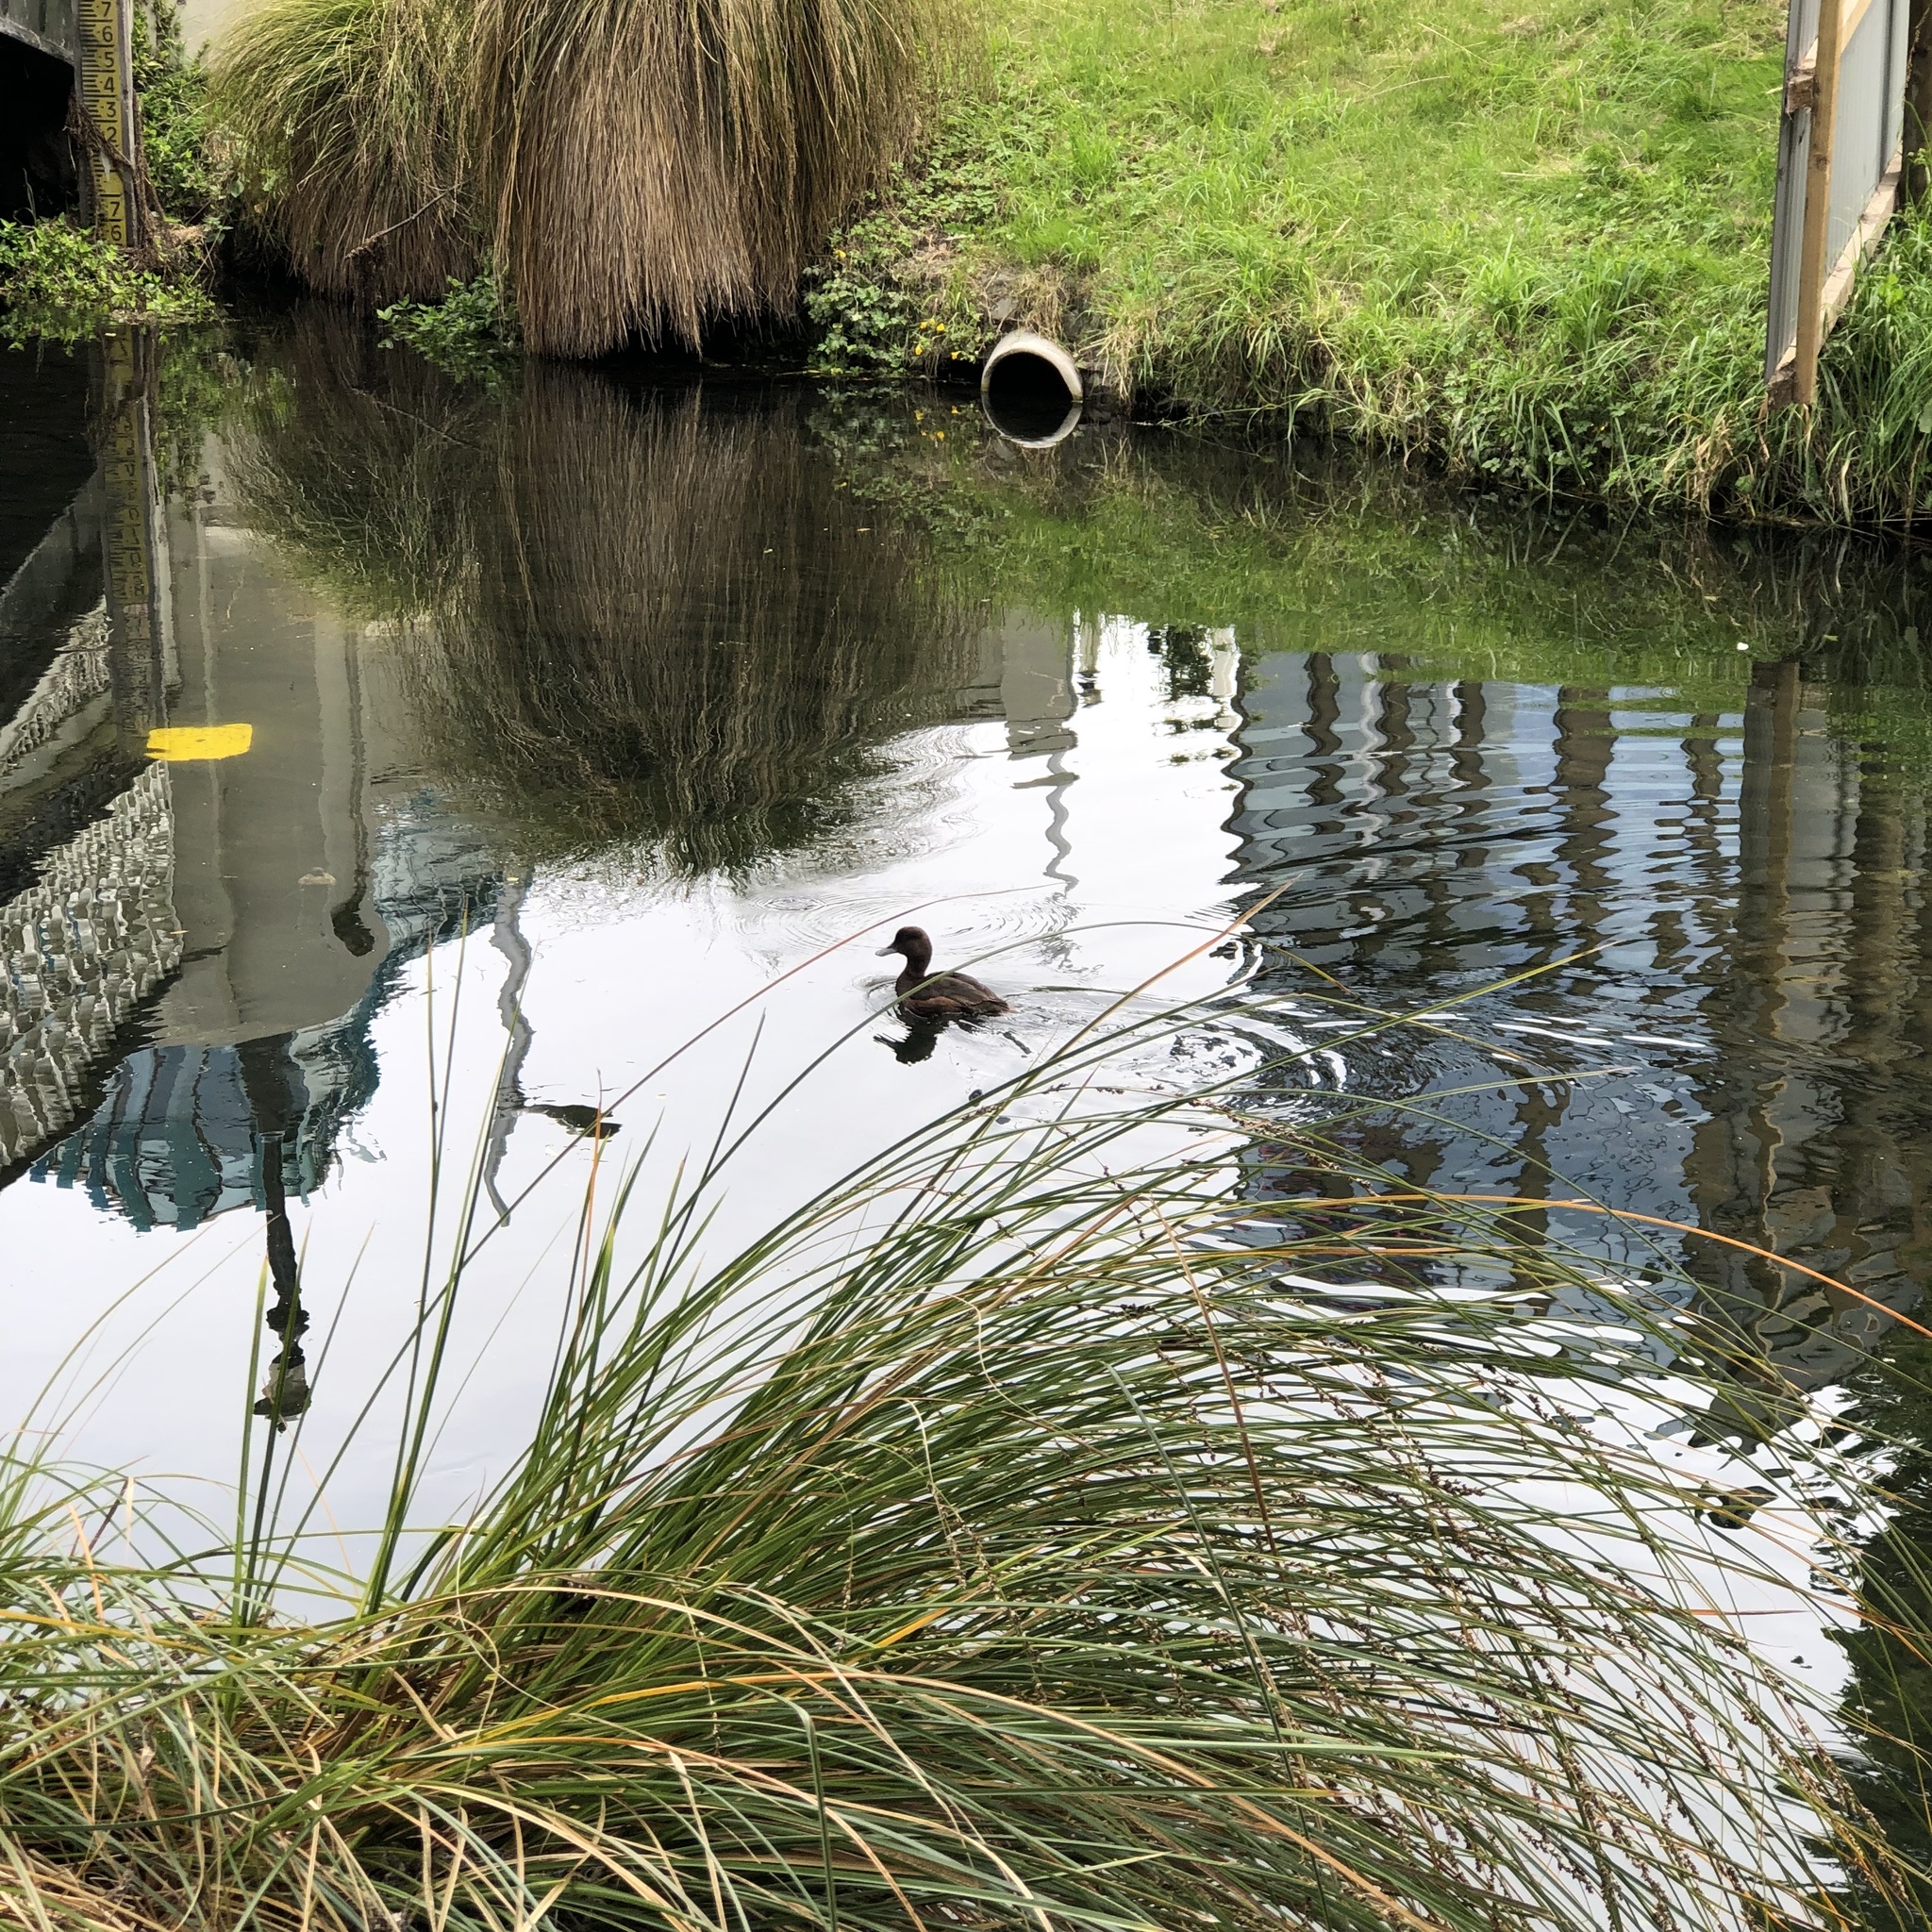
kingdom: Animalia
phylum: Chordata
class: Aves
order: Anseriformes
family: Anatidae
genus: Aythya
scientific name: Aythya novaeseelandiae
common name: New zealand scaup
